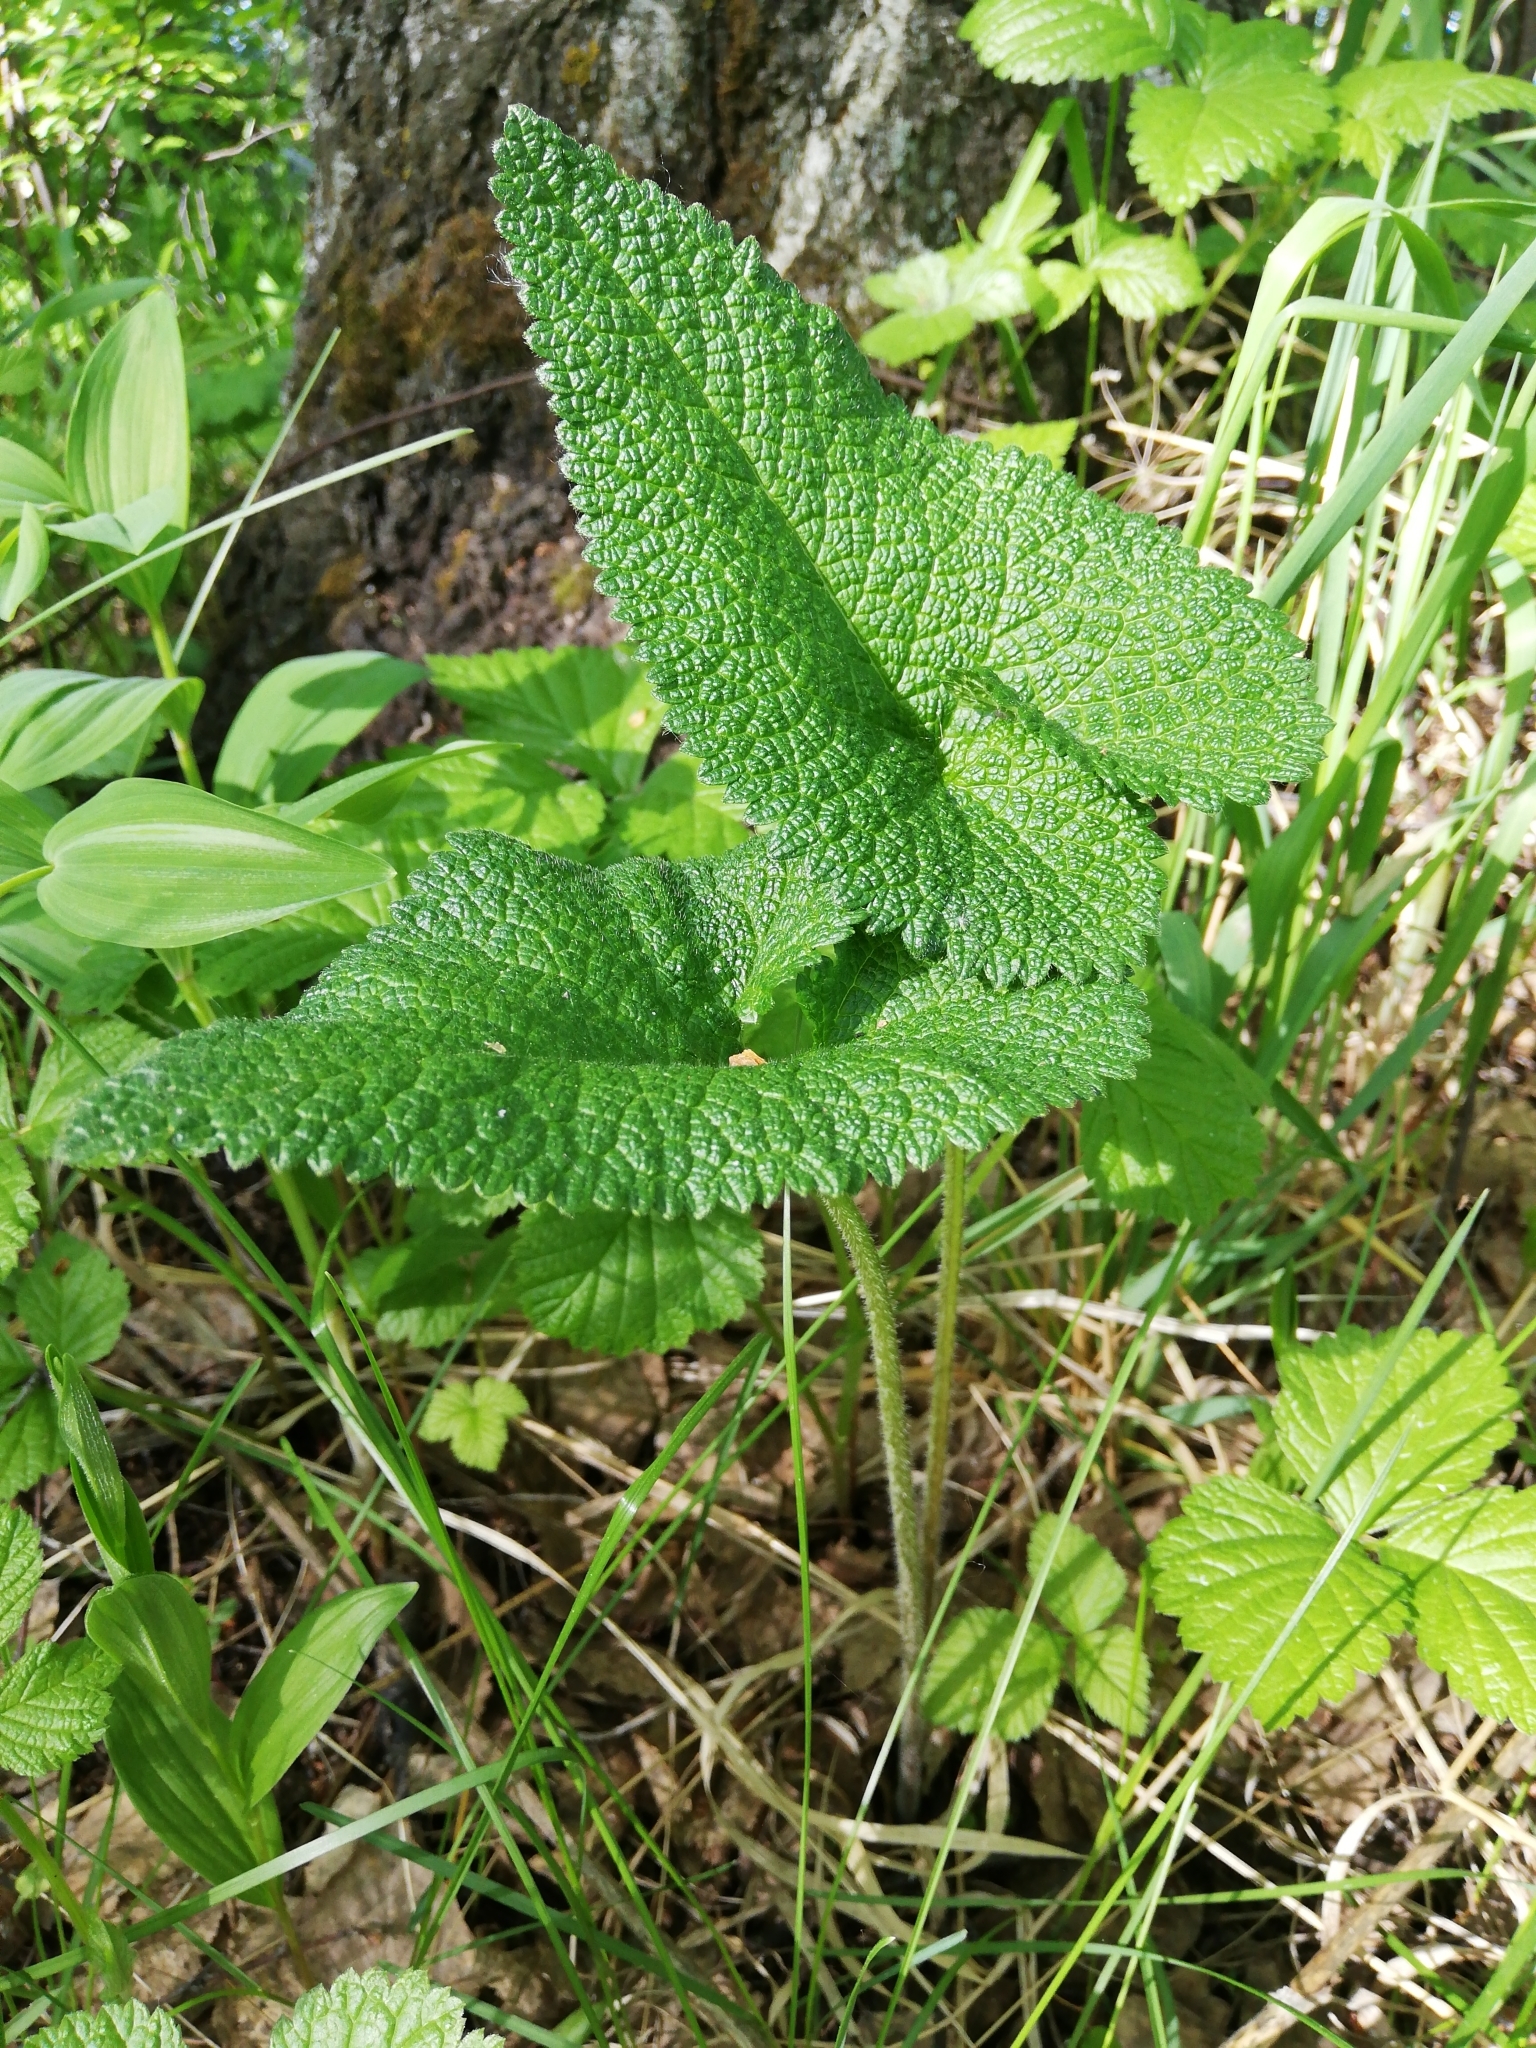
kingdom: Plantae
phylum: Tracheophyta
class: Magnoliopsida
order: Lamiales
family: Lamiaceae
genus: Phlomoides
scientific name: Phlomoides tuberosa
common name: Tuberous jerusalem sage
